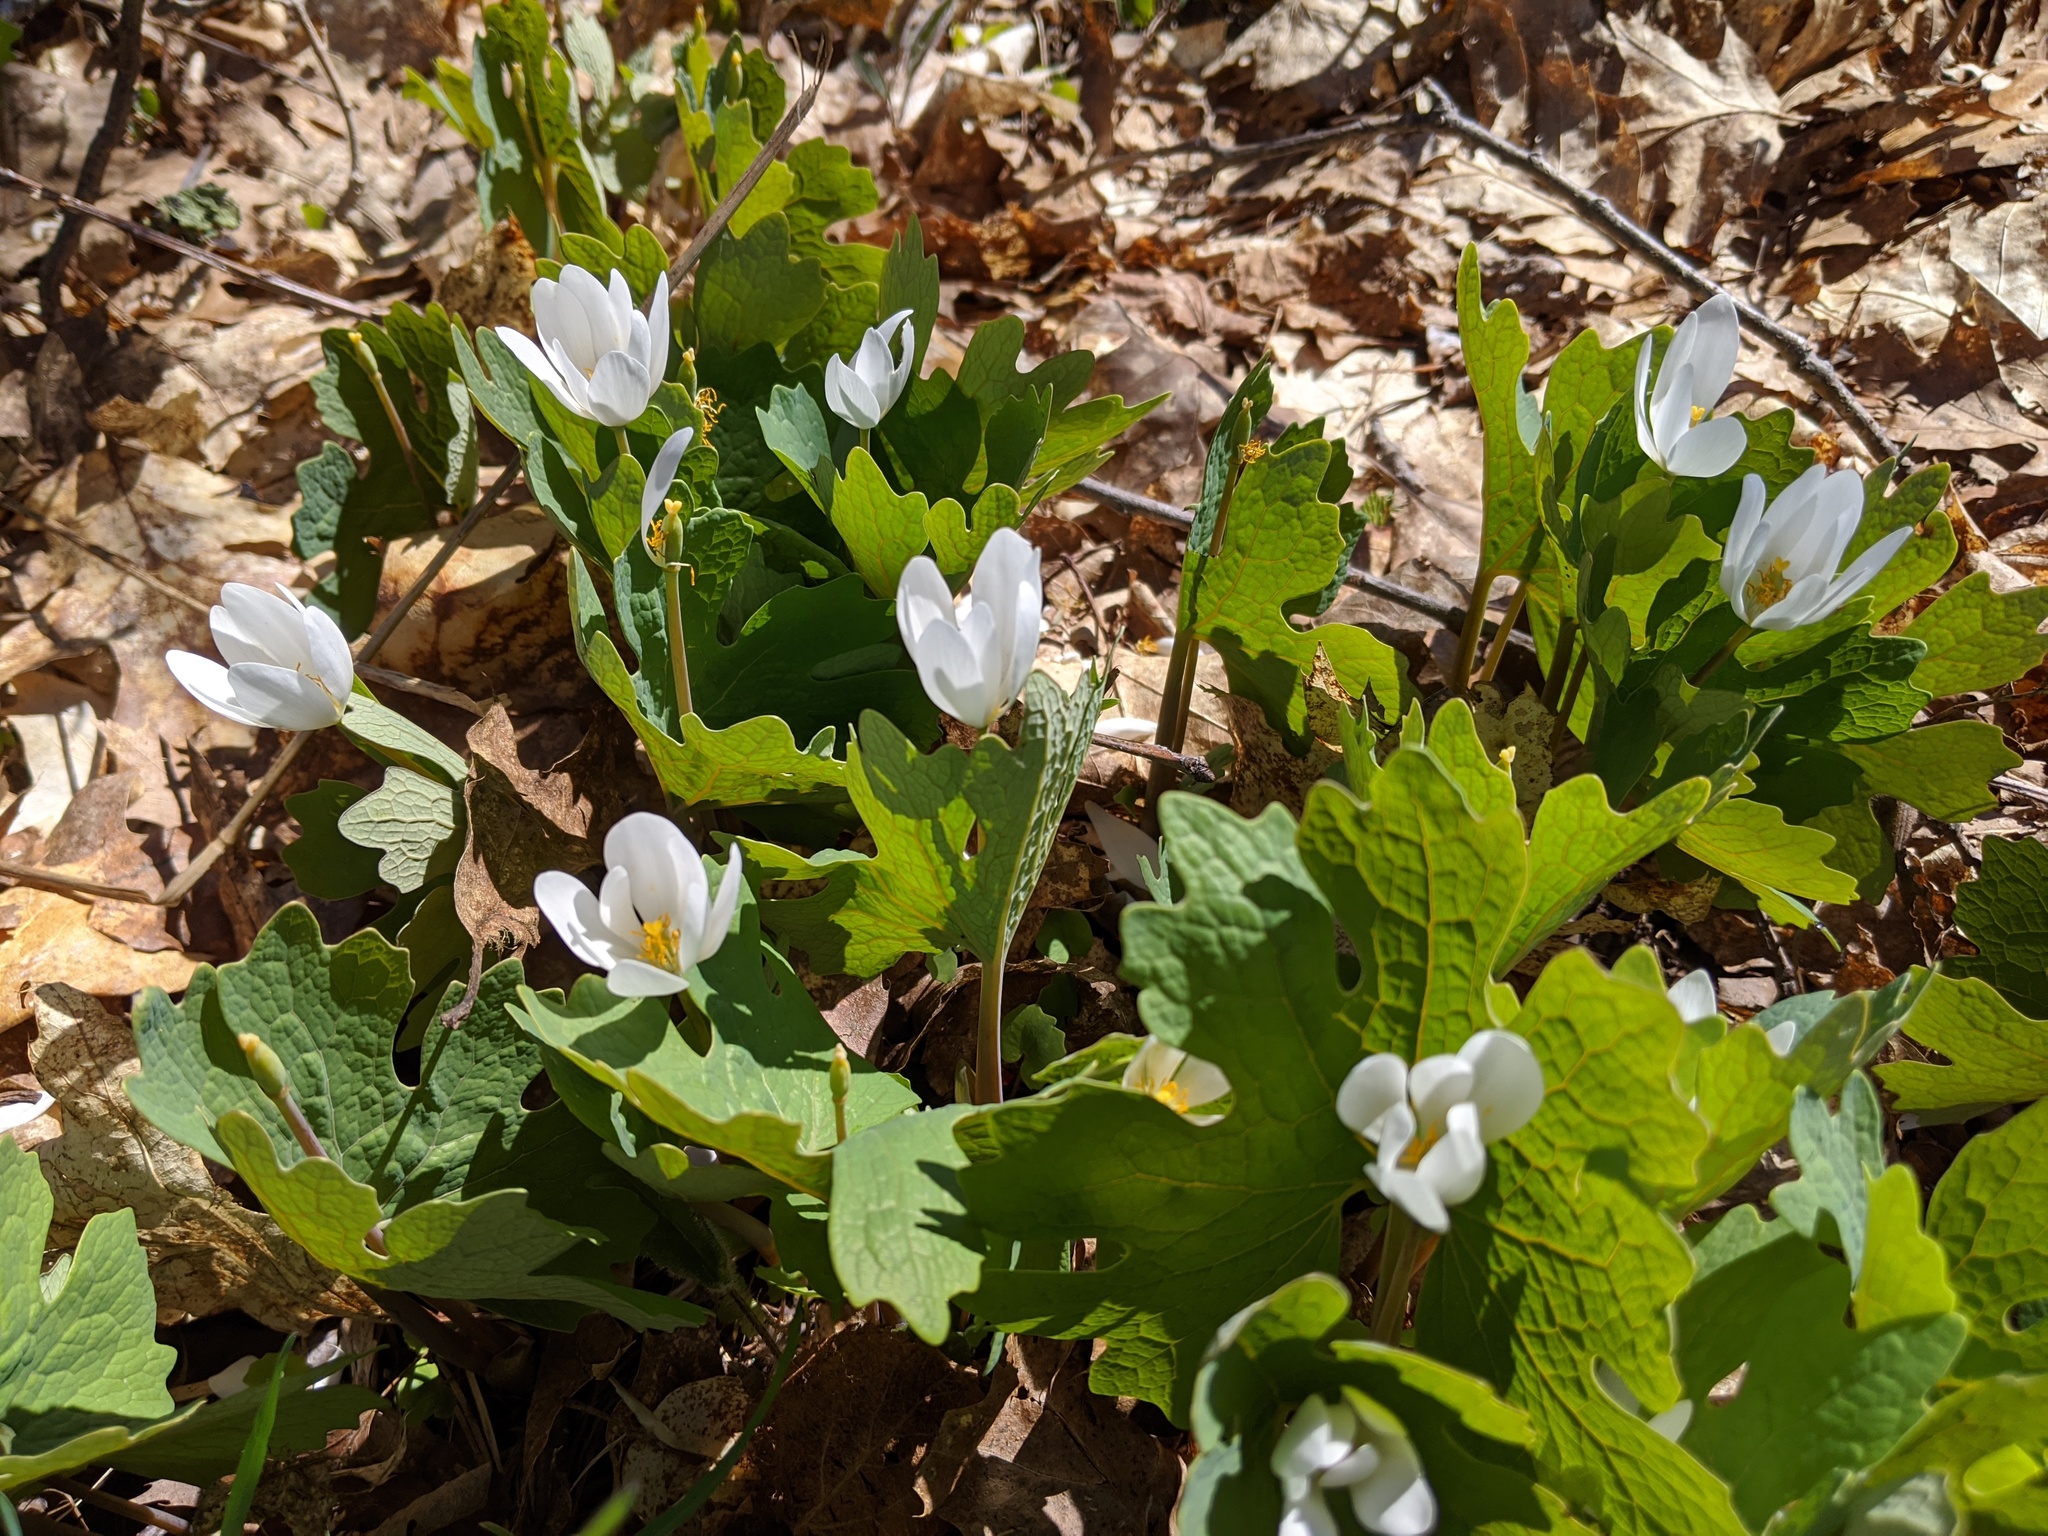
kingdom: Plantae
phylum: Tracheophyta
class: Magnoliopsida
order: Ranunculales
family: Papaveraceae
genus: Sanguinaria
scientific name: Sanguinaria canadensis
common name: Bloodroot
